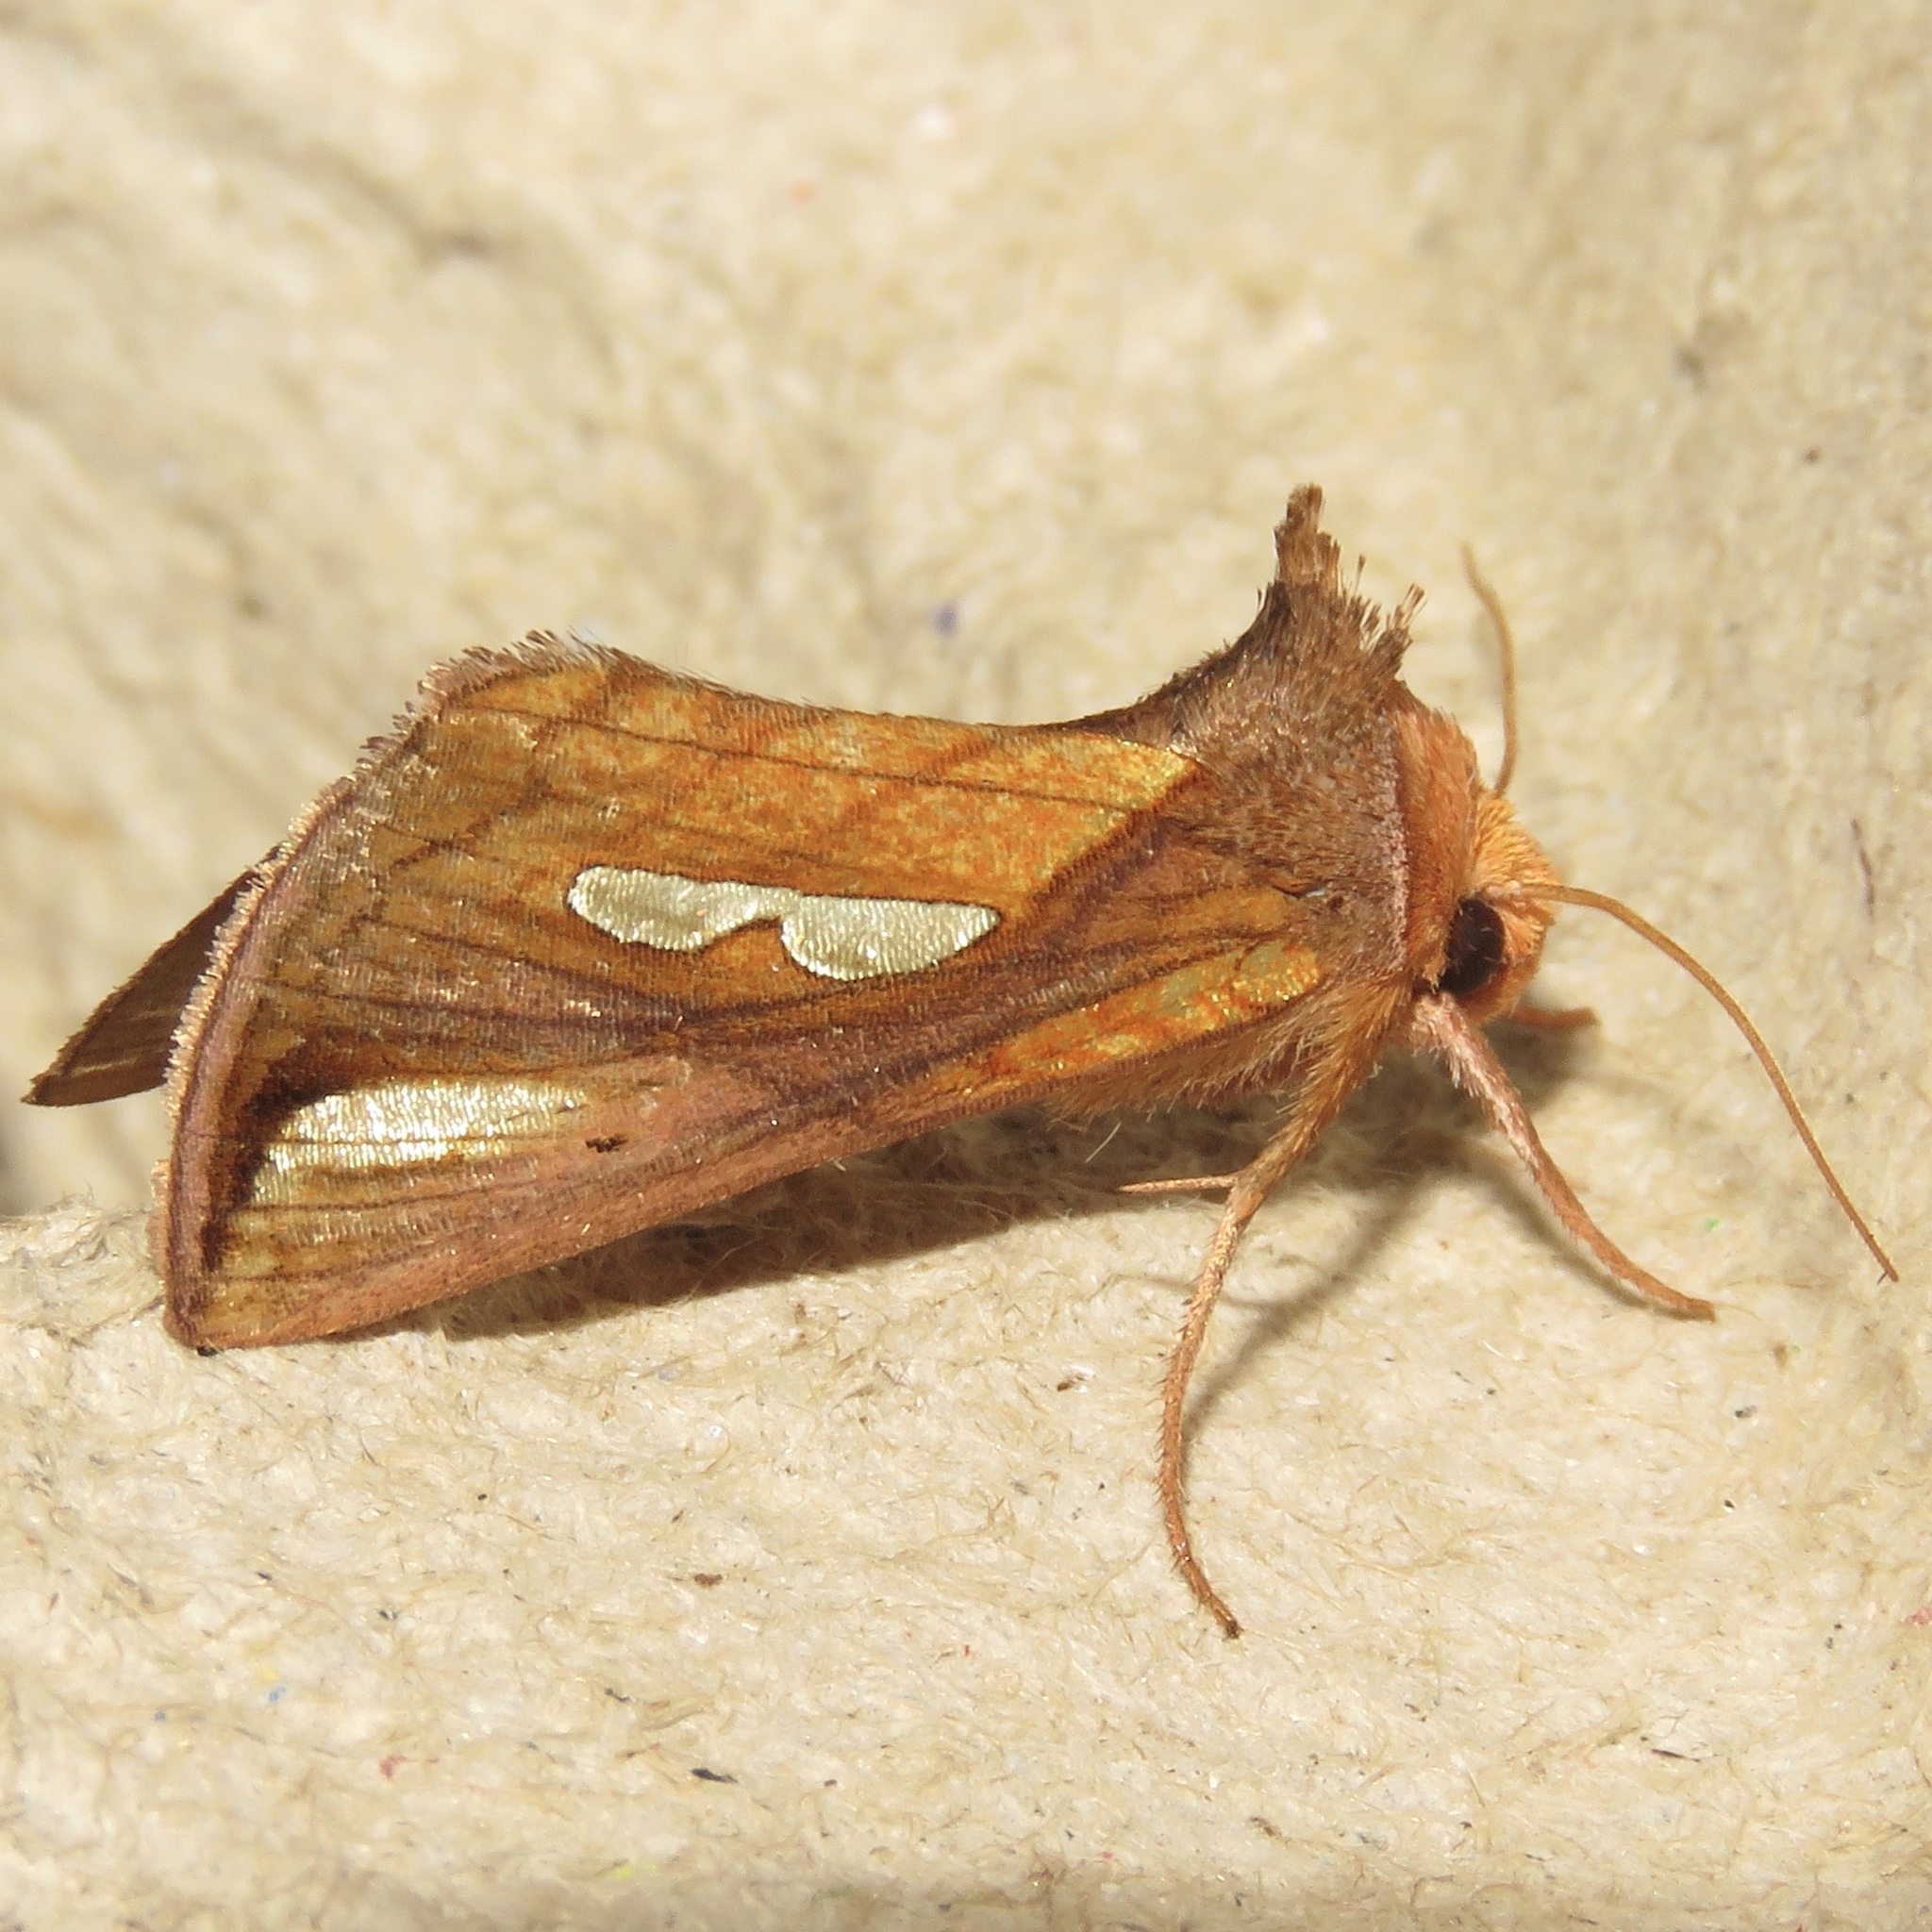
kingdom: Animalia
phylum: Arthropoda
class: Insecta
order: Lepidoptera
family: Noctuidae
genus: Plusia
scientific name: Plusia contexta
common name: Connected looper moth
